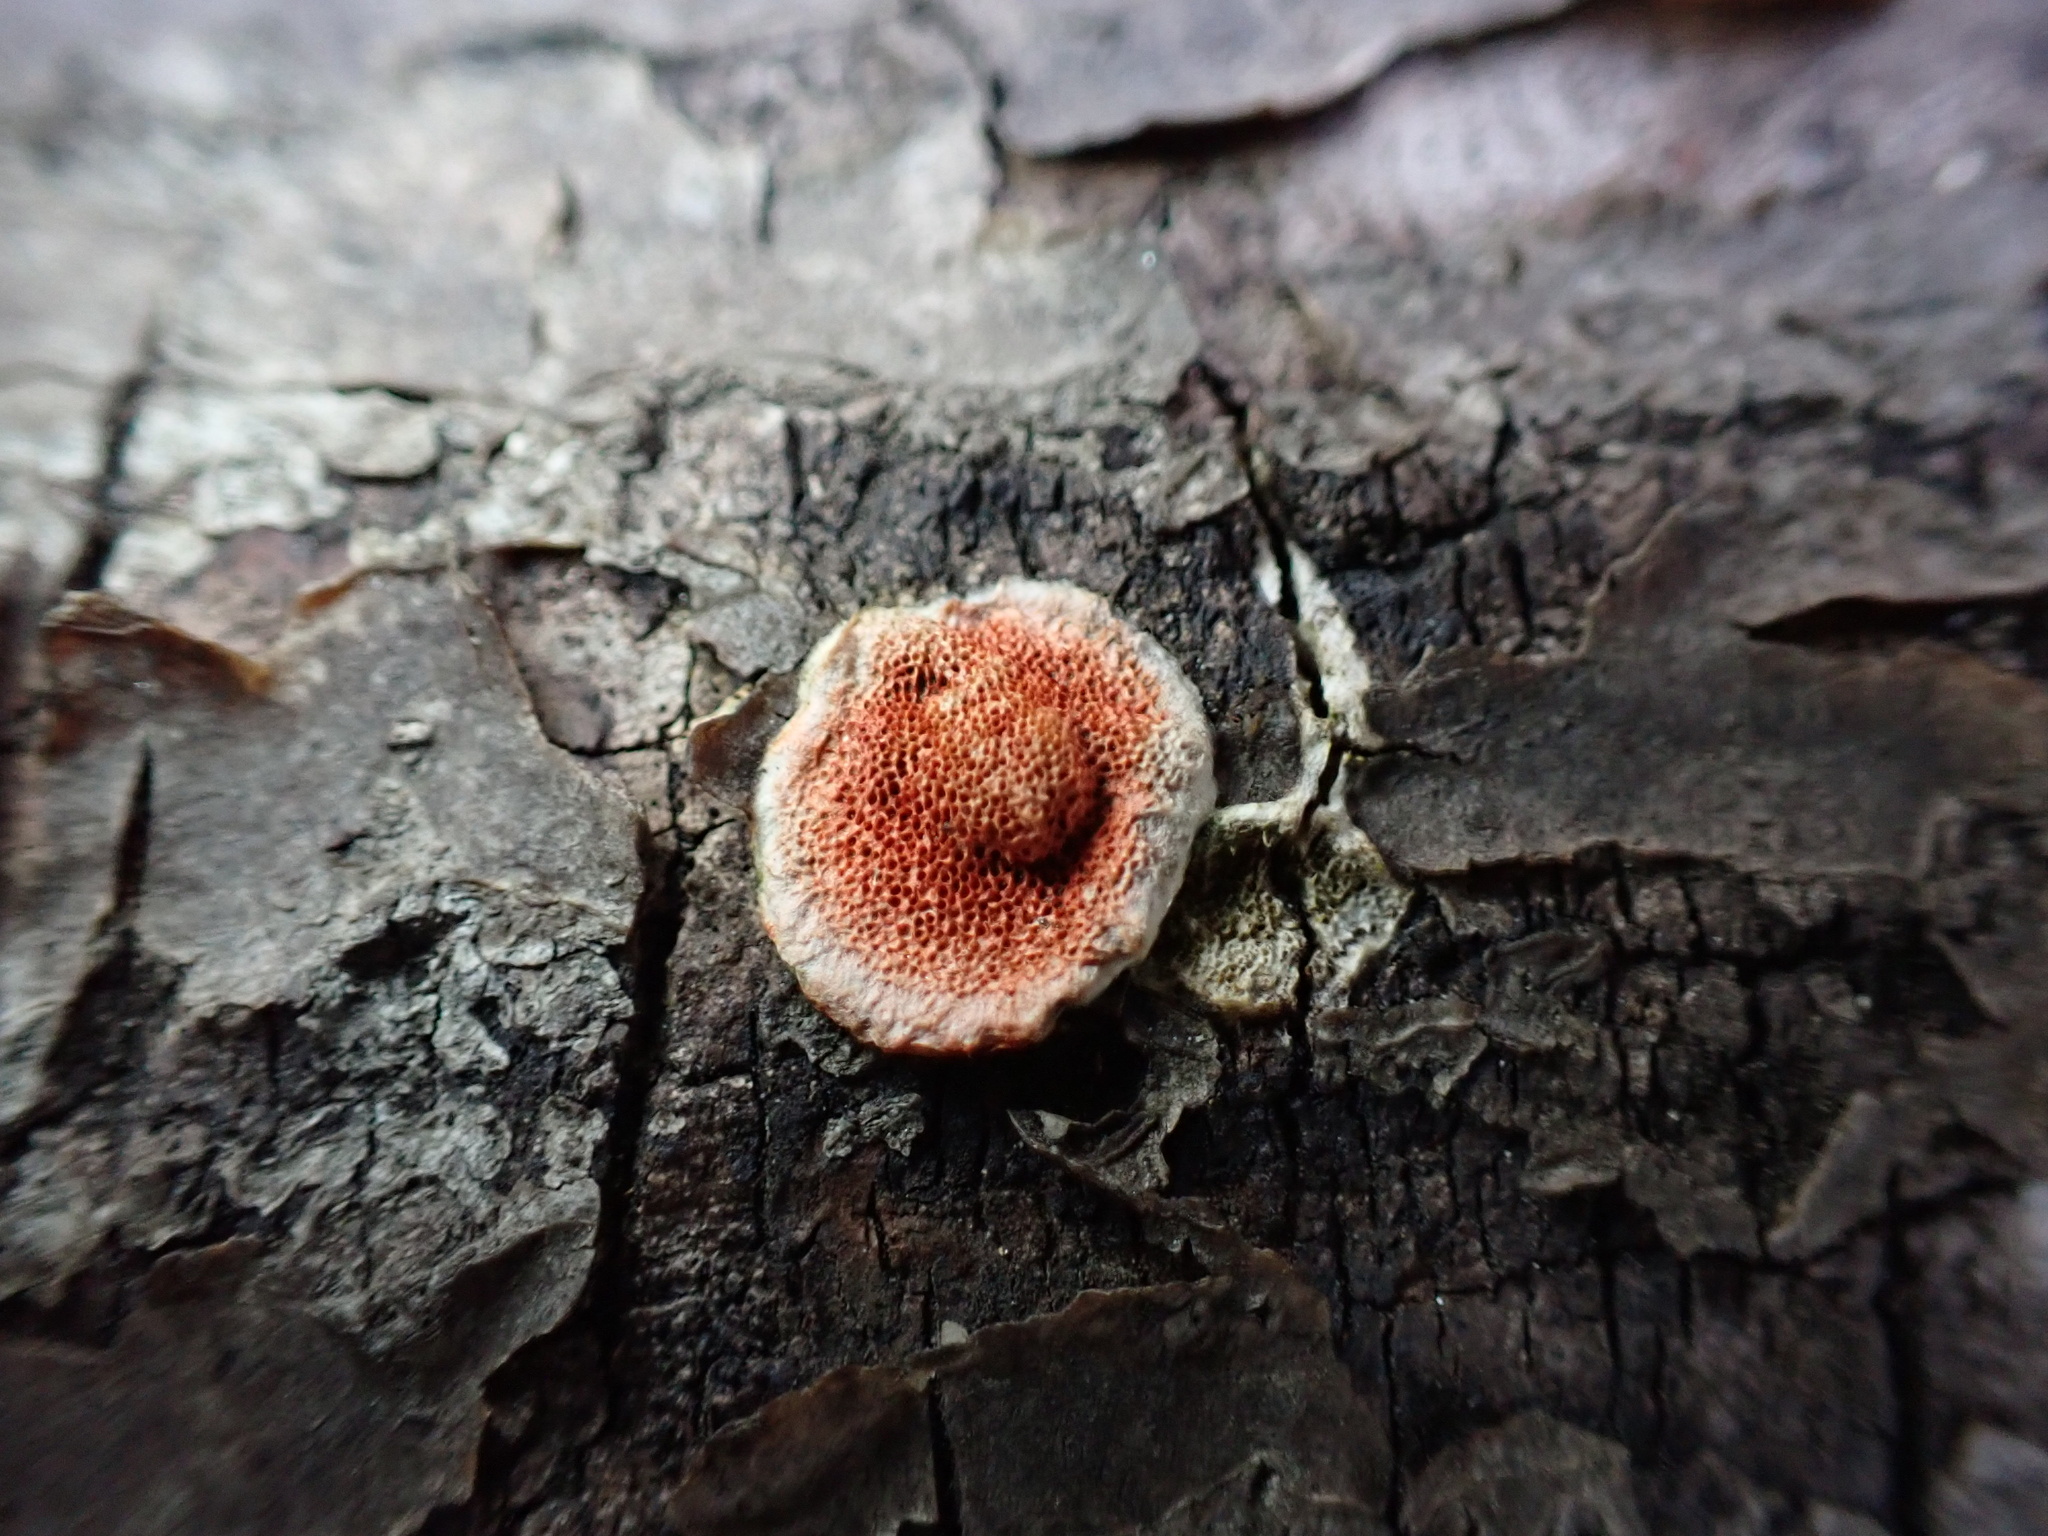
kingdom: Fungi
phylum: Basidiomycota
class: Agaricomycetes
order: Polyporales
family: Polyporaceae
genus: Trametes
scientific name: Trametes cinnabarina
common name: Northern cinnabar polypore
